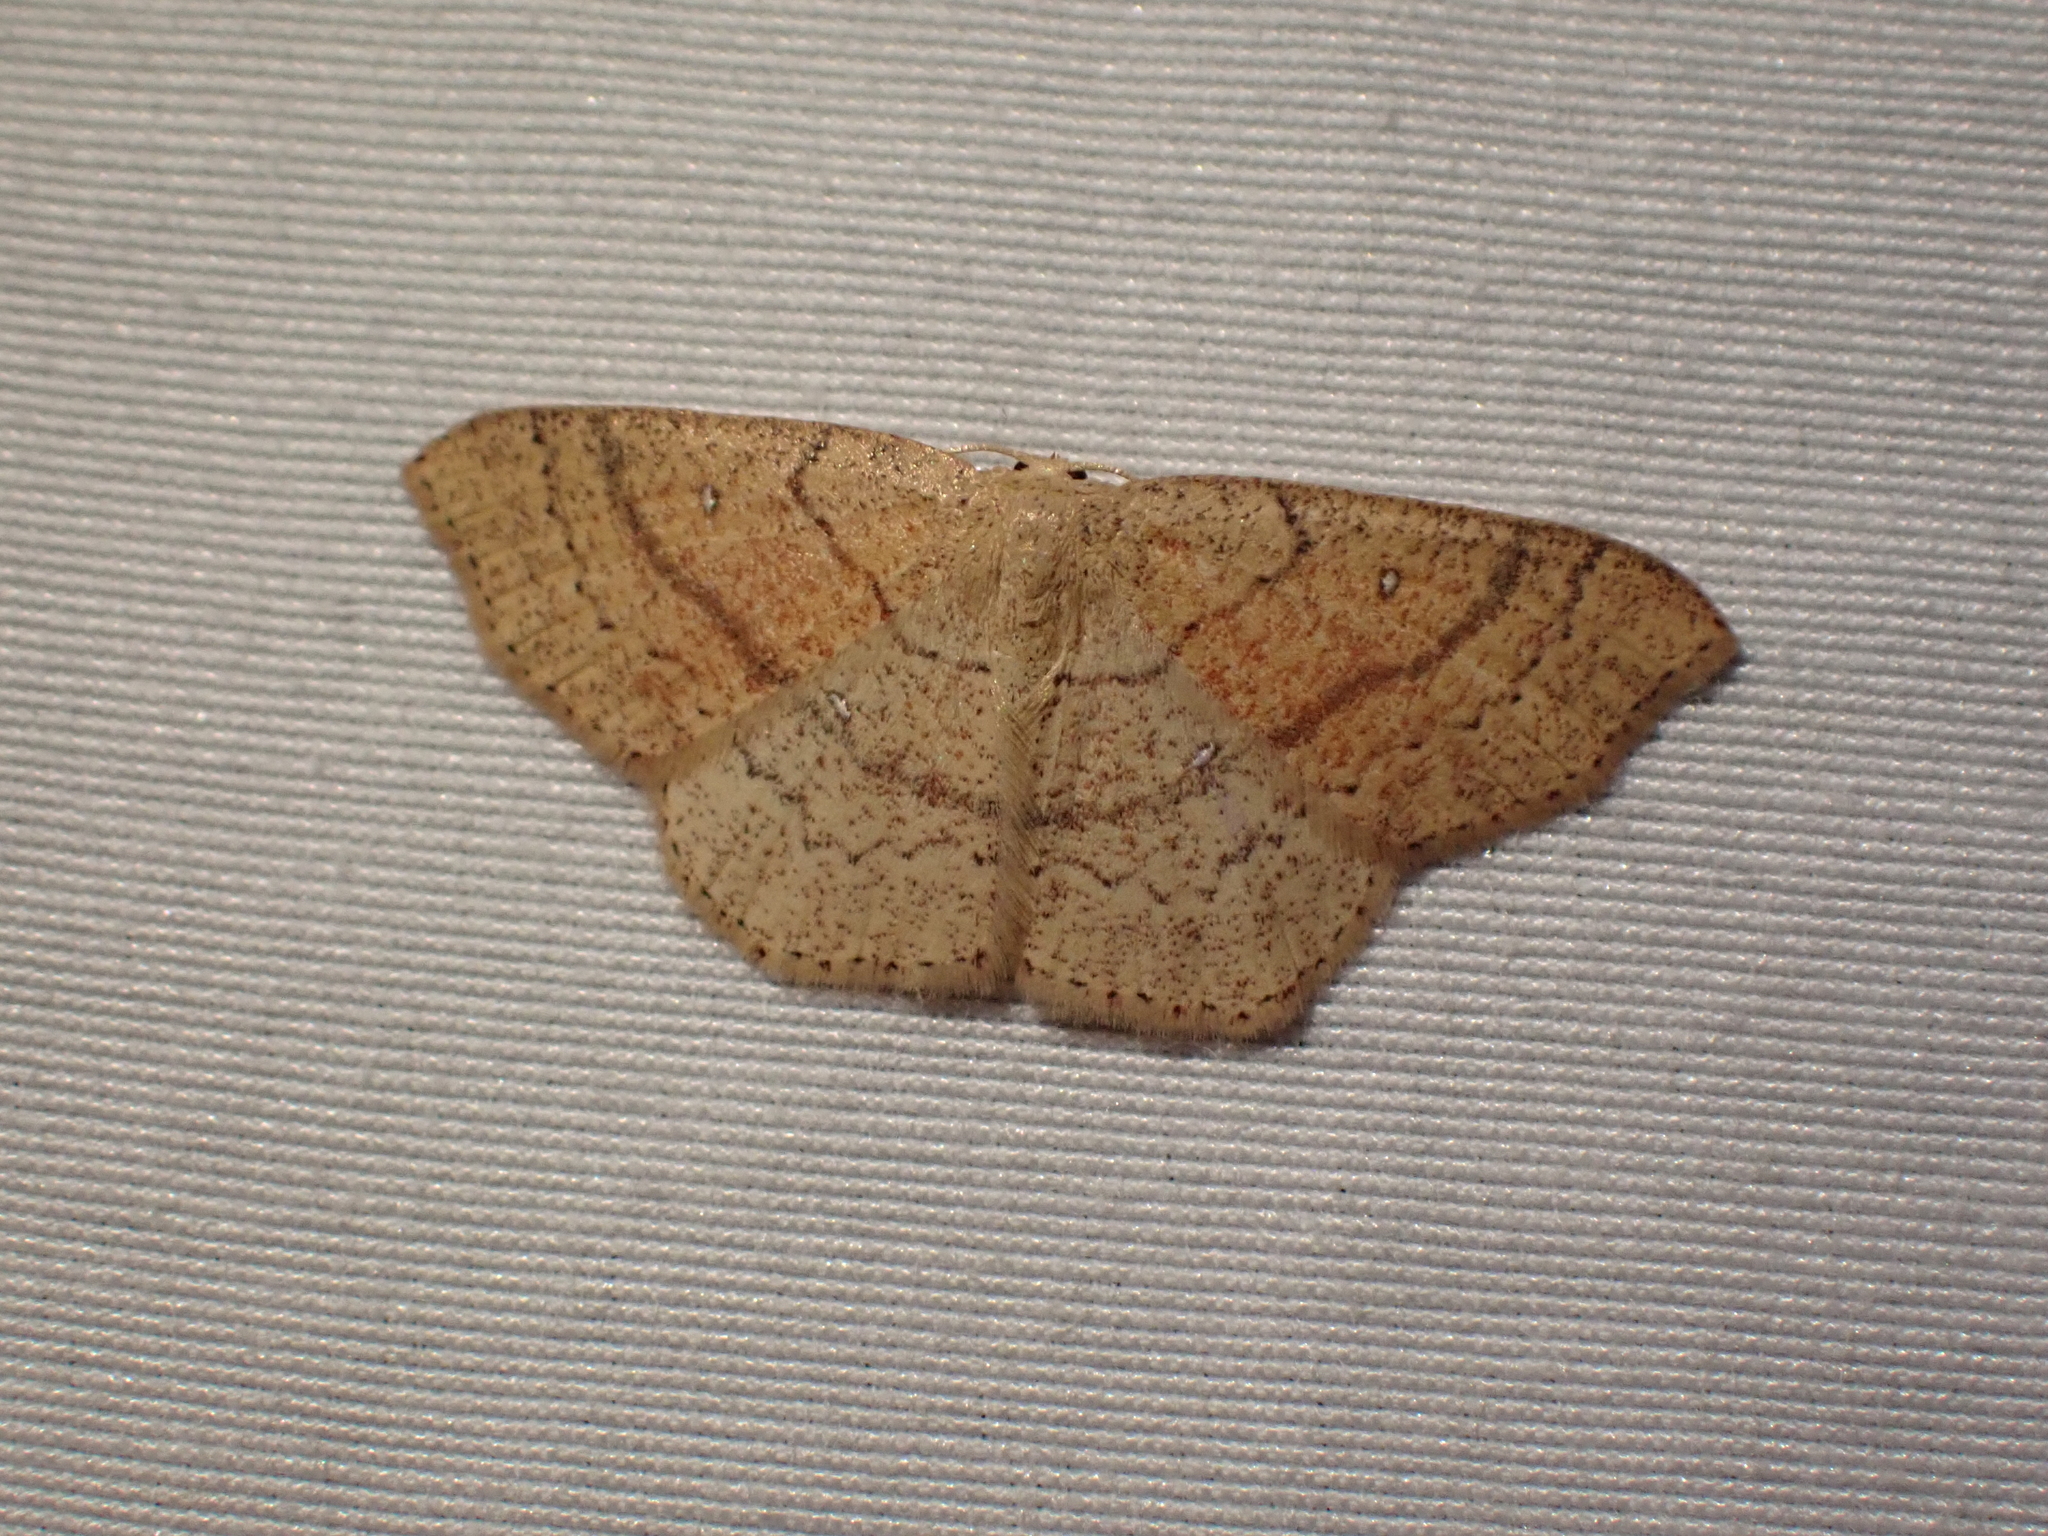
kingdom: Animalia
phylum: Arthropoda
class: Insecta
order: Lepidoptera
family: Geometridae
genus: Cyclophora
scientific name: Cyclophora dataria
